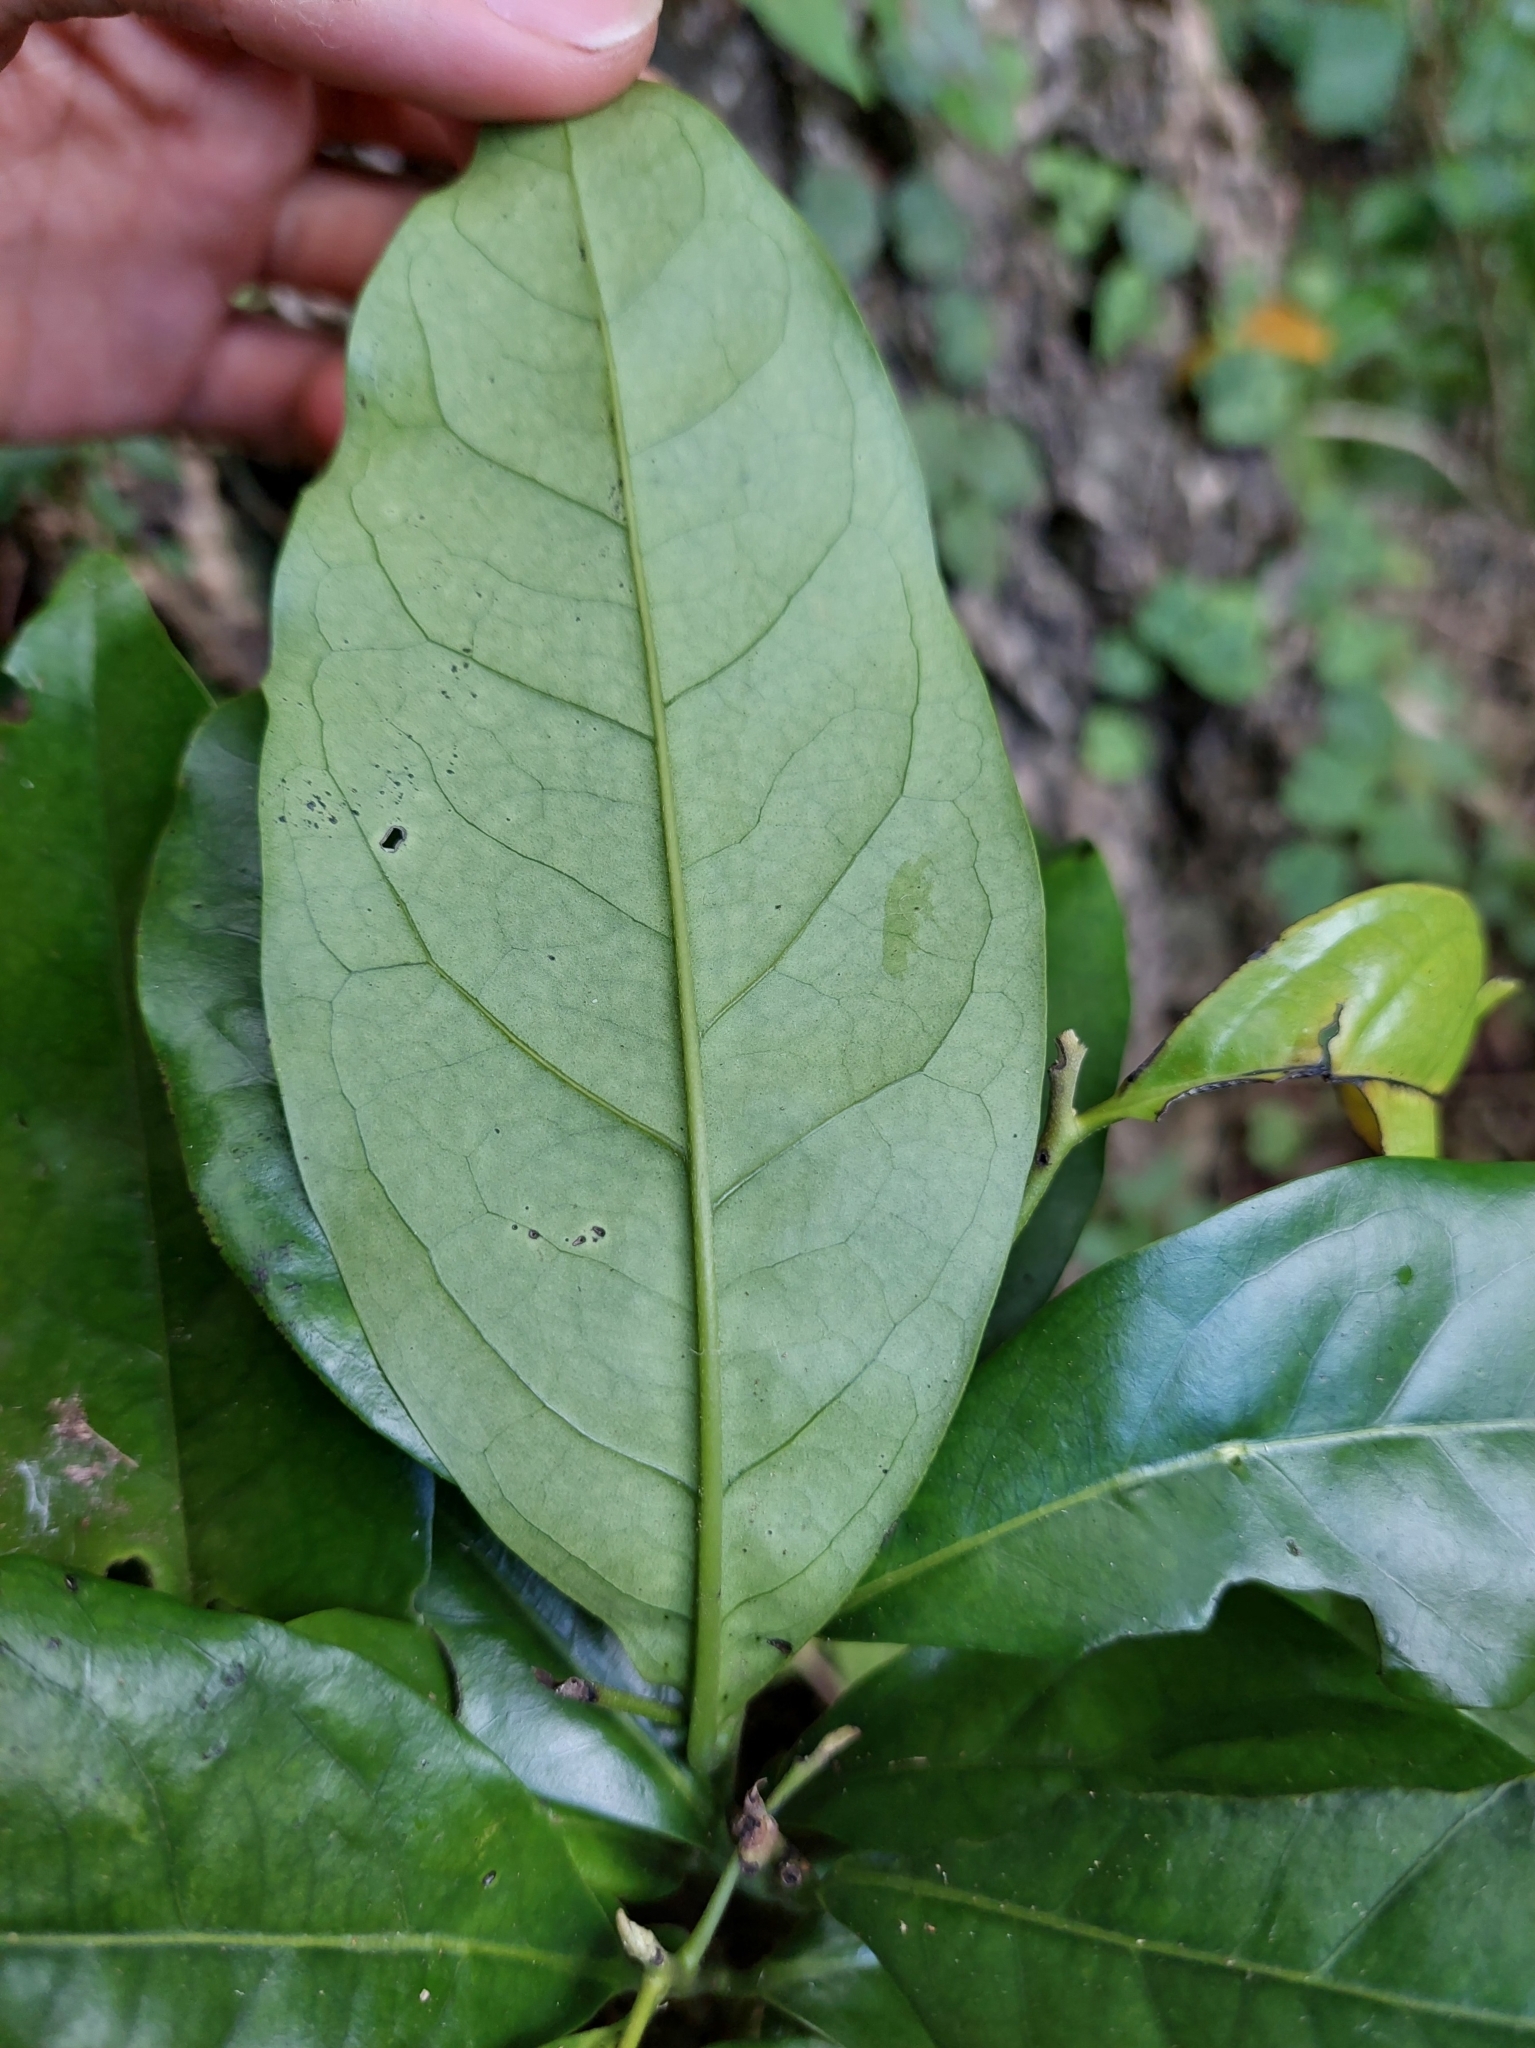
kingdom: Plantae
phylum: Tracheophyta
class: Magnoliopsida
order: Brassicales
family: Capparaceae
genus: Capparis
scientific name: Capparis micracantha
